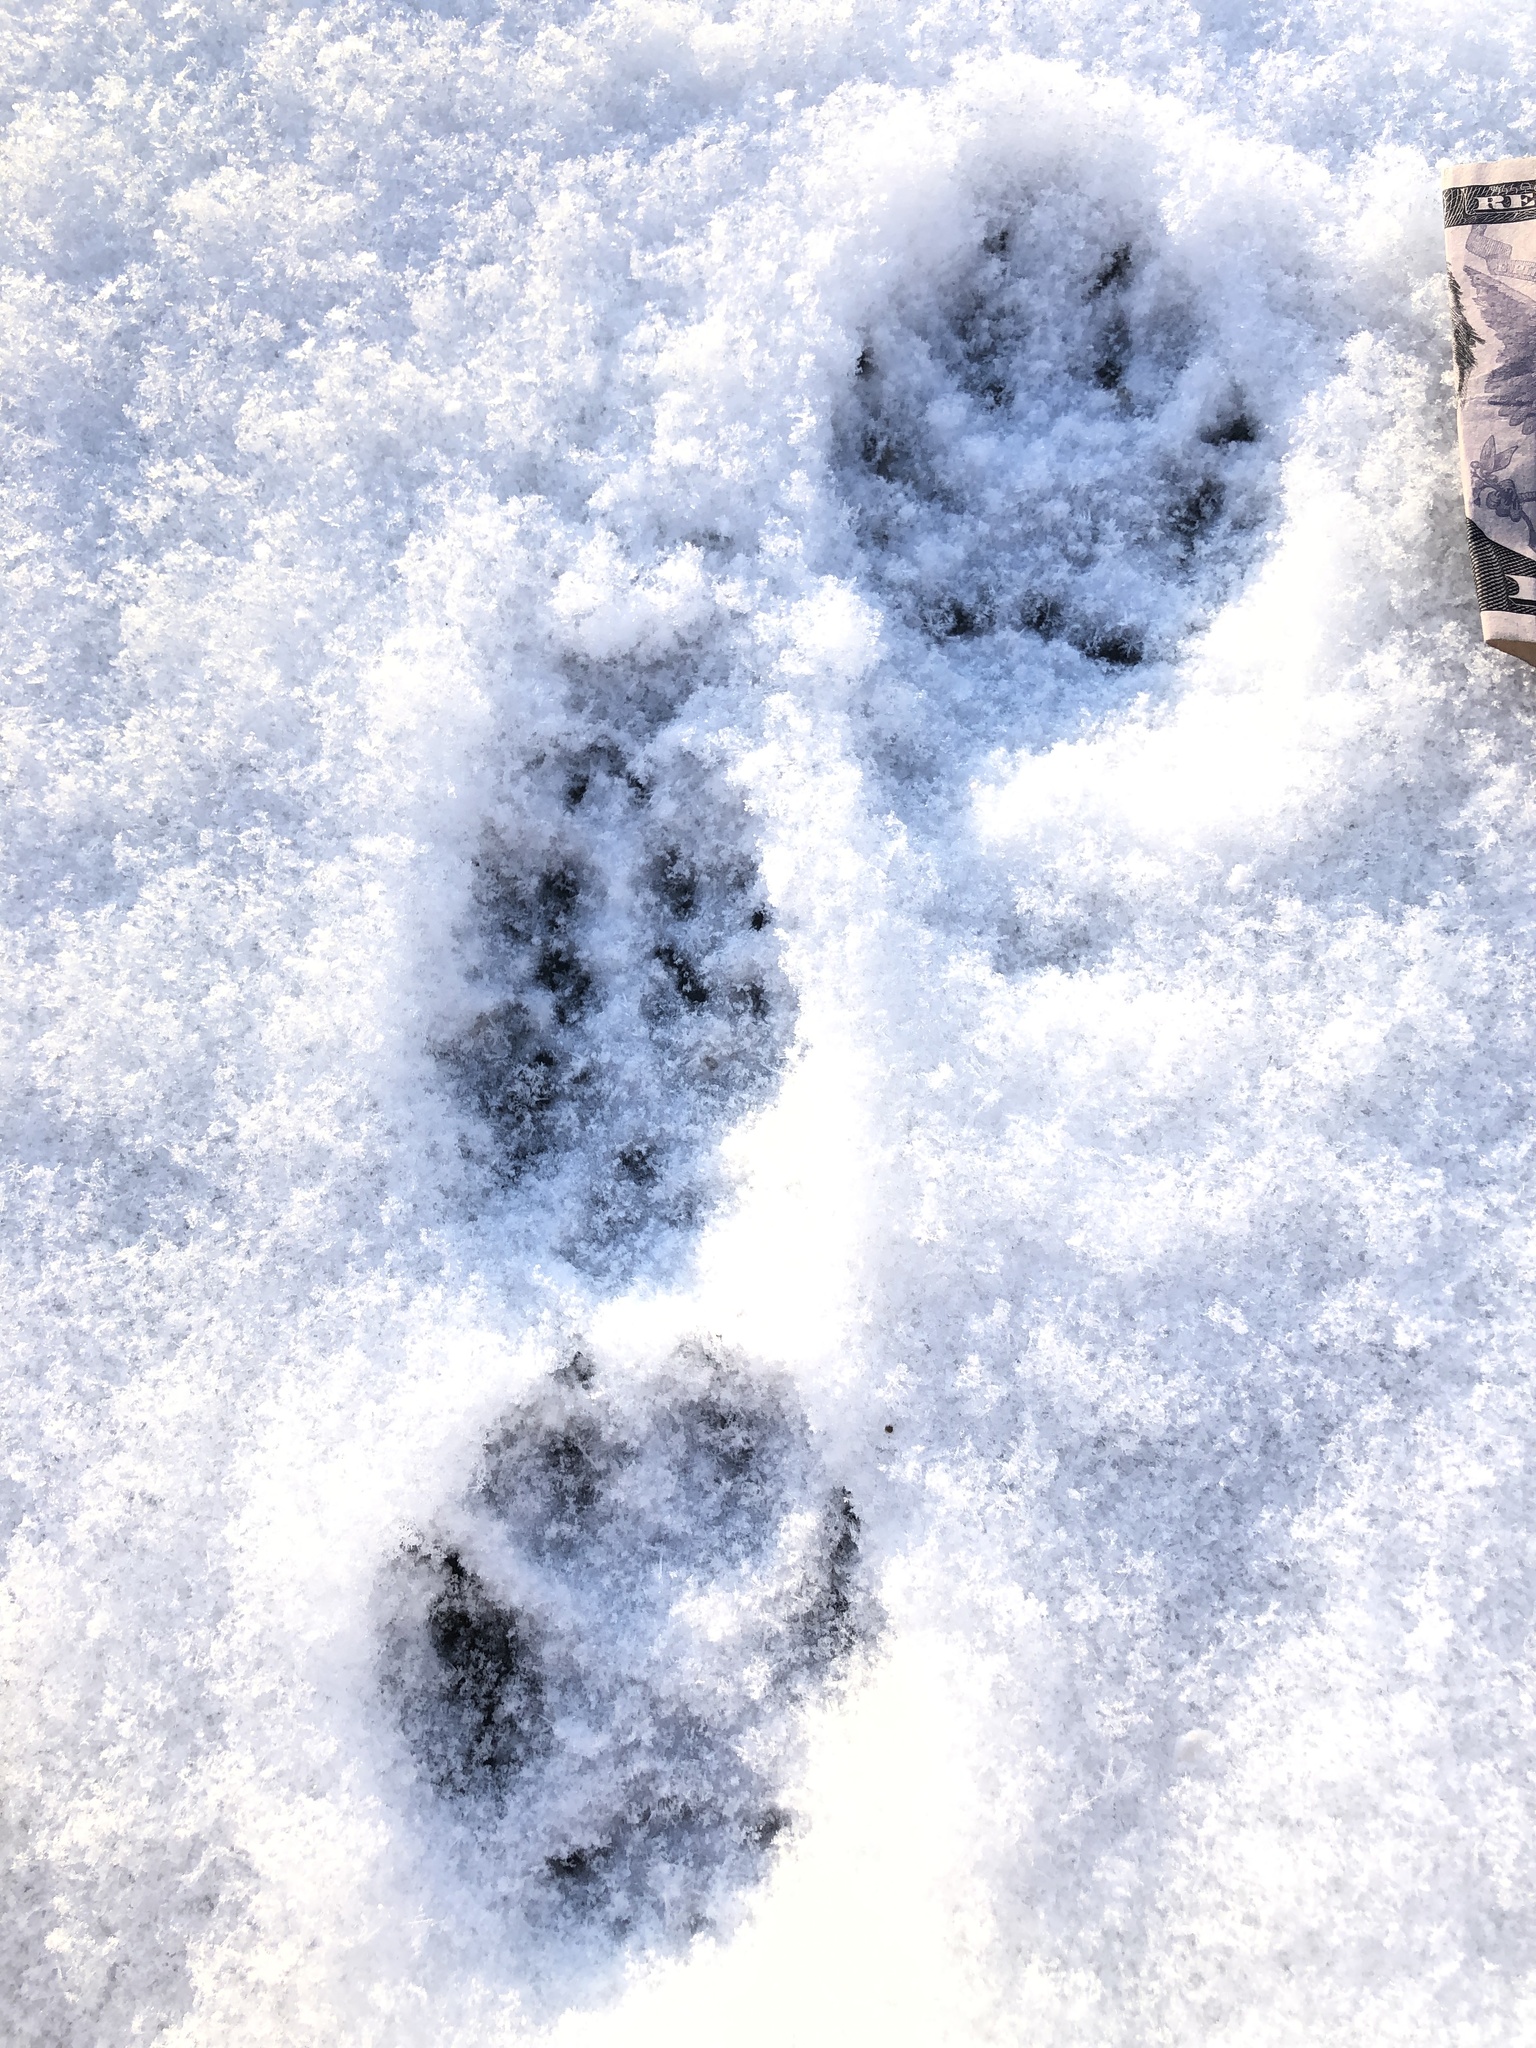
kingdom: Animalia
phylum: Chordata
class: Mammalia
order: Carnivora
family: Canidae
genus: Vulpes
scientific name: Vulpes vulpes
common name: Red fox
